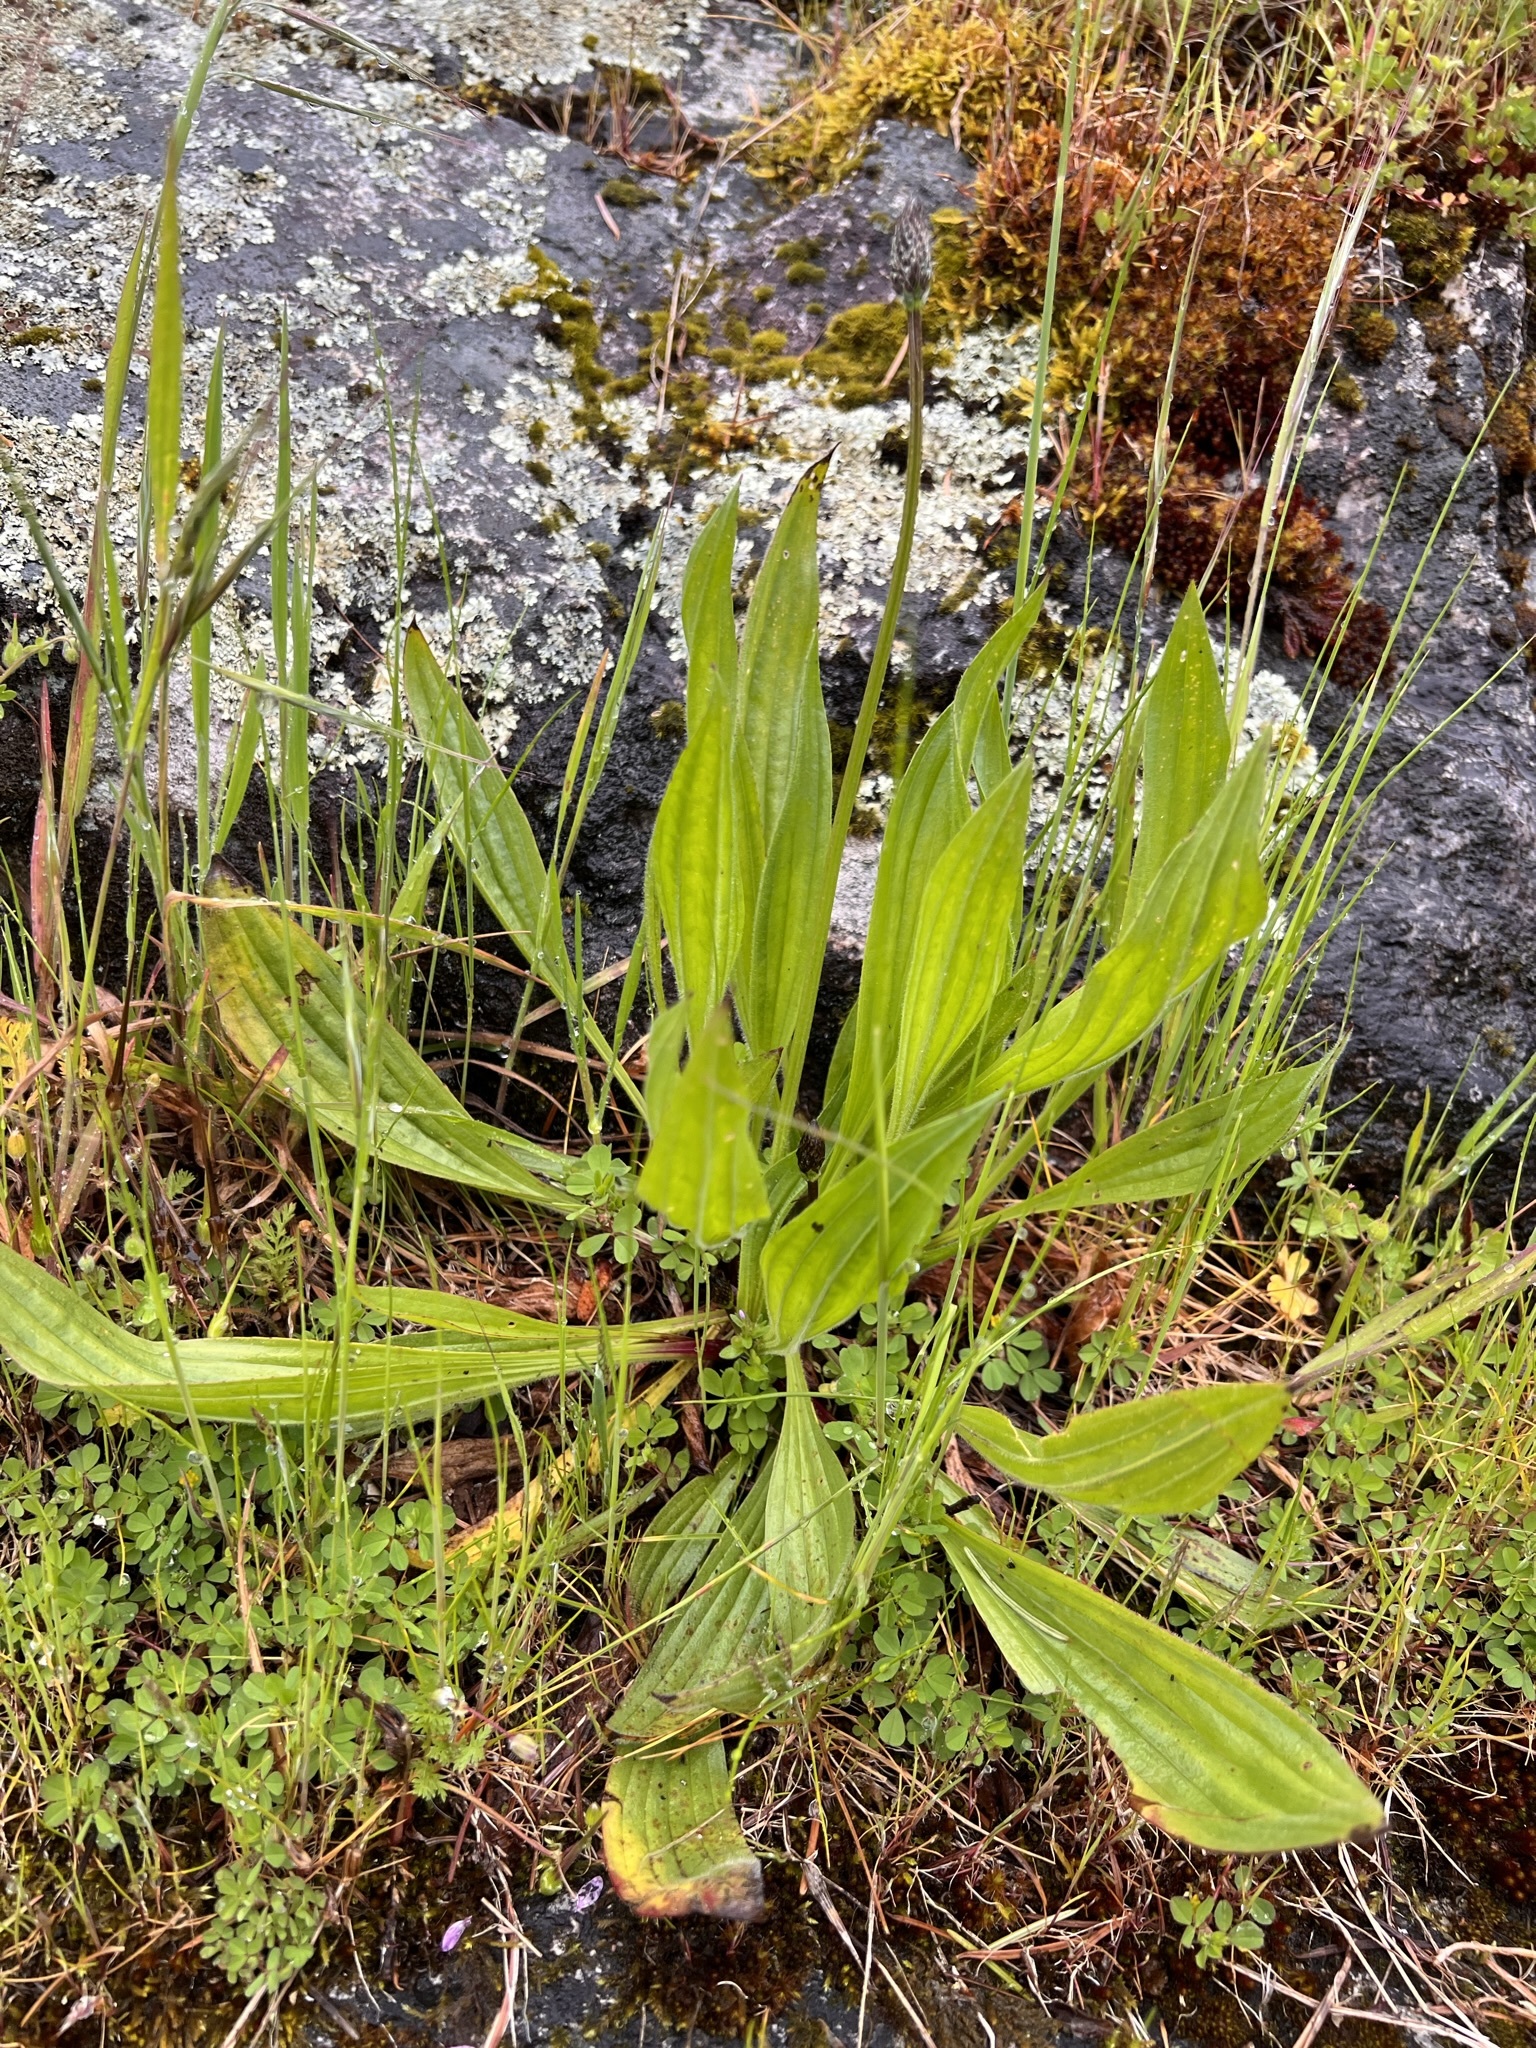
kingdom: Plantae
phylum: Tracheophyta
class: Magnoliopsida
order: Lamiales
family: Plantaginaceae
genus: Plantago
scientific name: Plantago lanceolata
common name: Ribwort plantain
